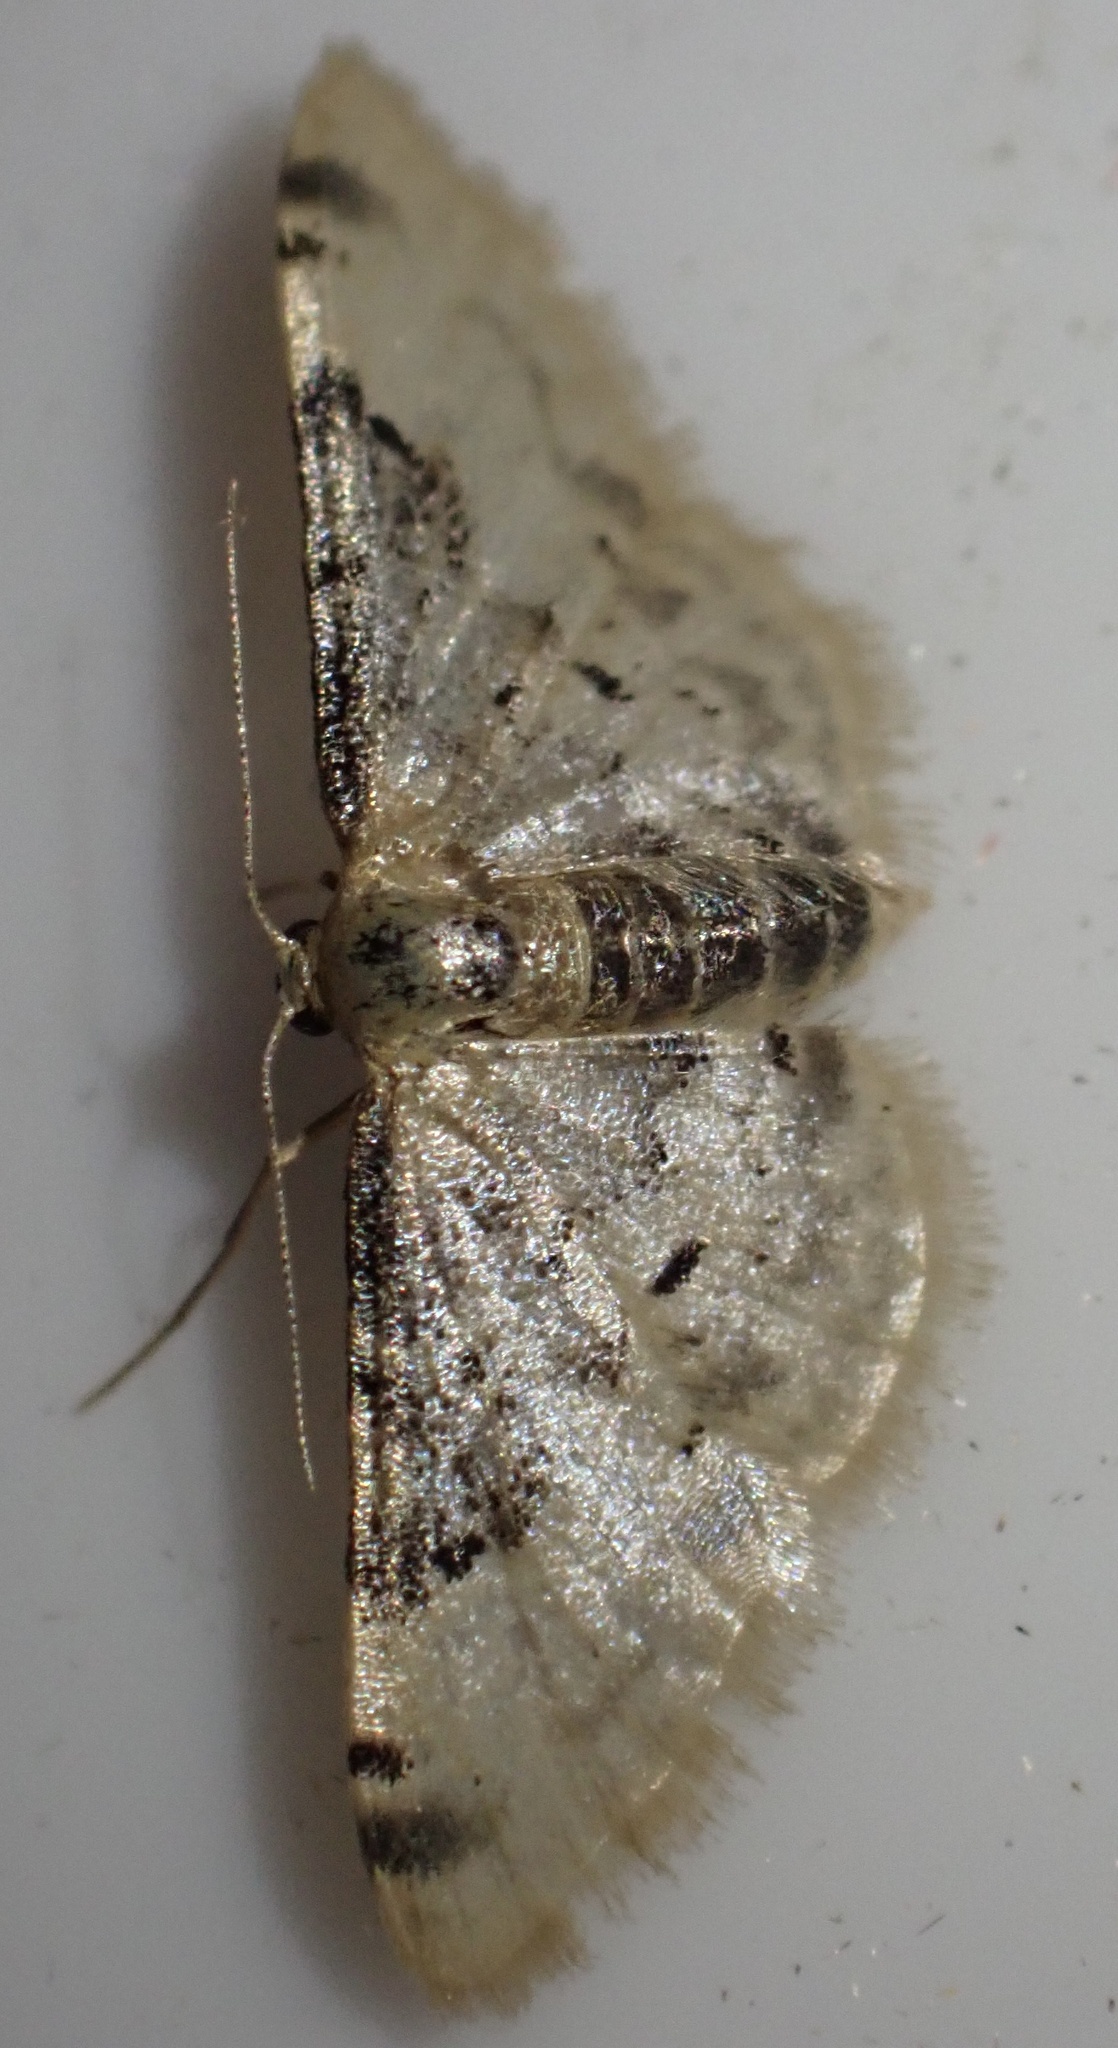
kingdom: Animalia
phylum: Arthropoda
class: Insecta
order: Lepidoptera
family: Geometridae
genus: Idaea
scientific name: Idaea filicata
